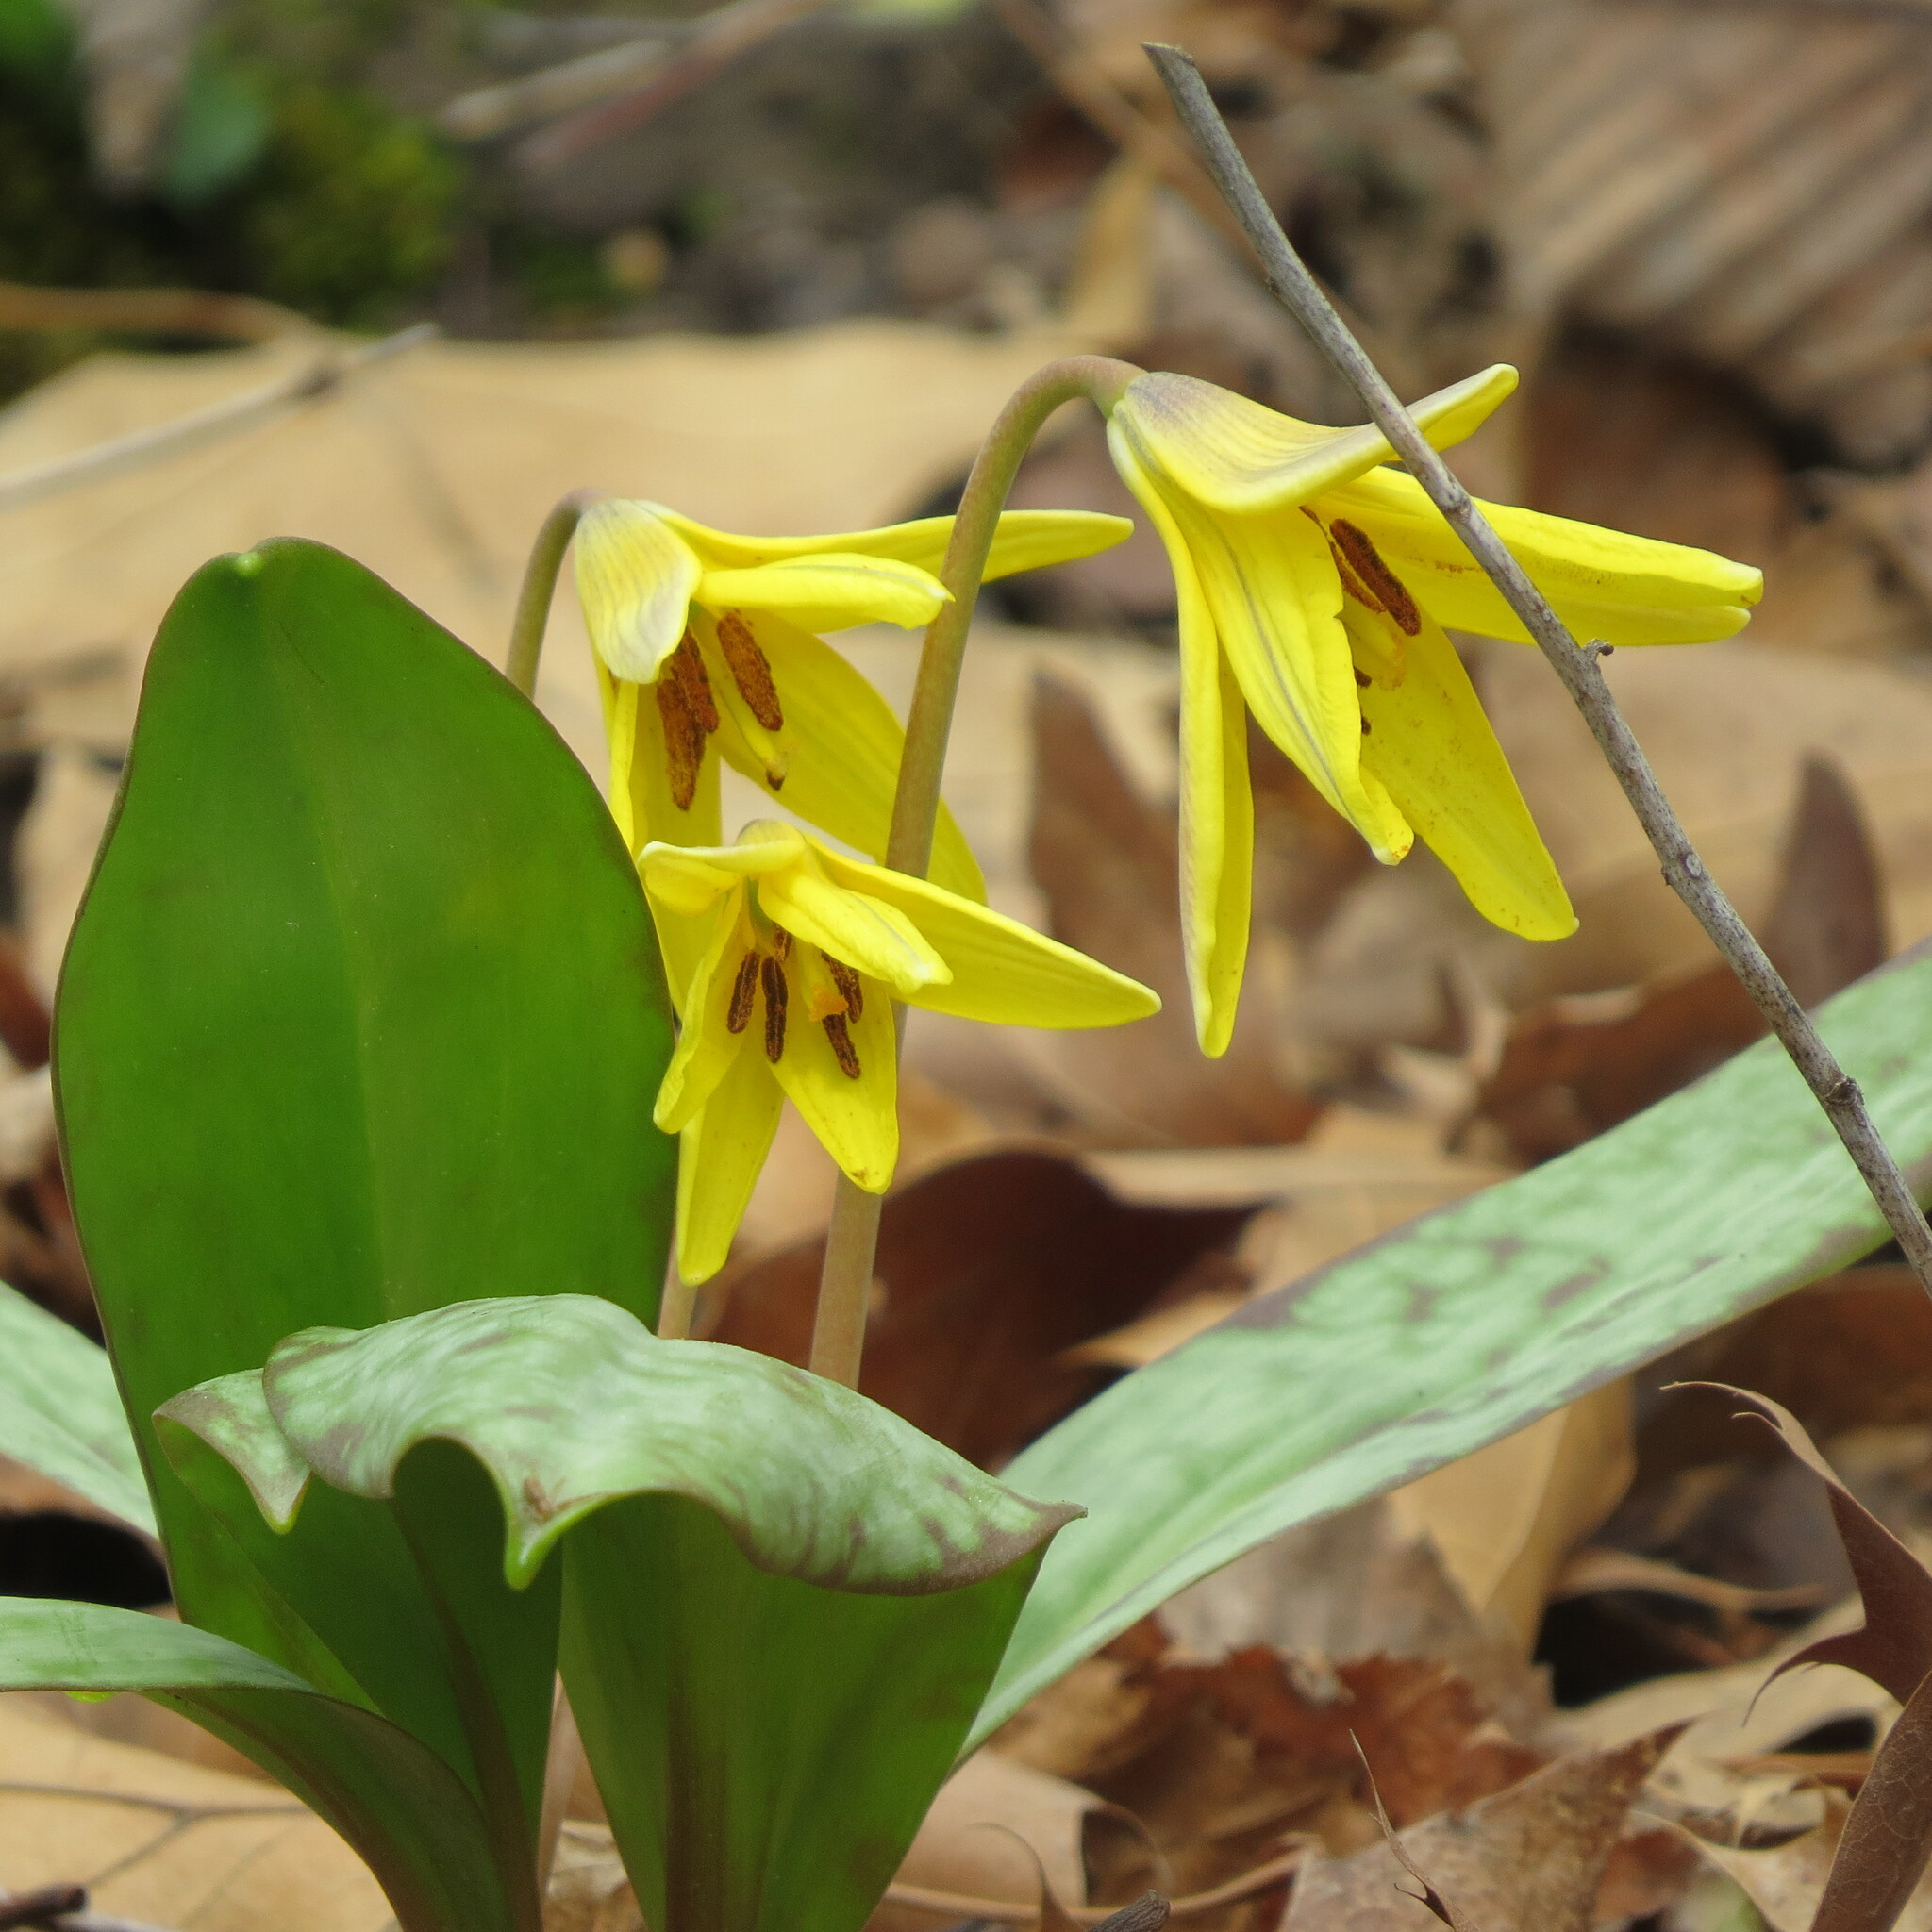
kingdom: Plantae
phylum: Tracheophyta
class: Liliopsida
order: Liliales
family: Liliaceae
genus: Erythronium
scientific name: Erythronium americanum
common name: Yellow adder's-tongue
